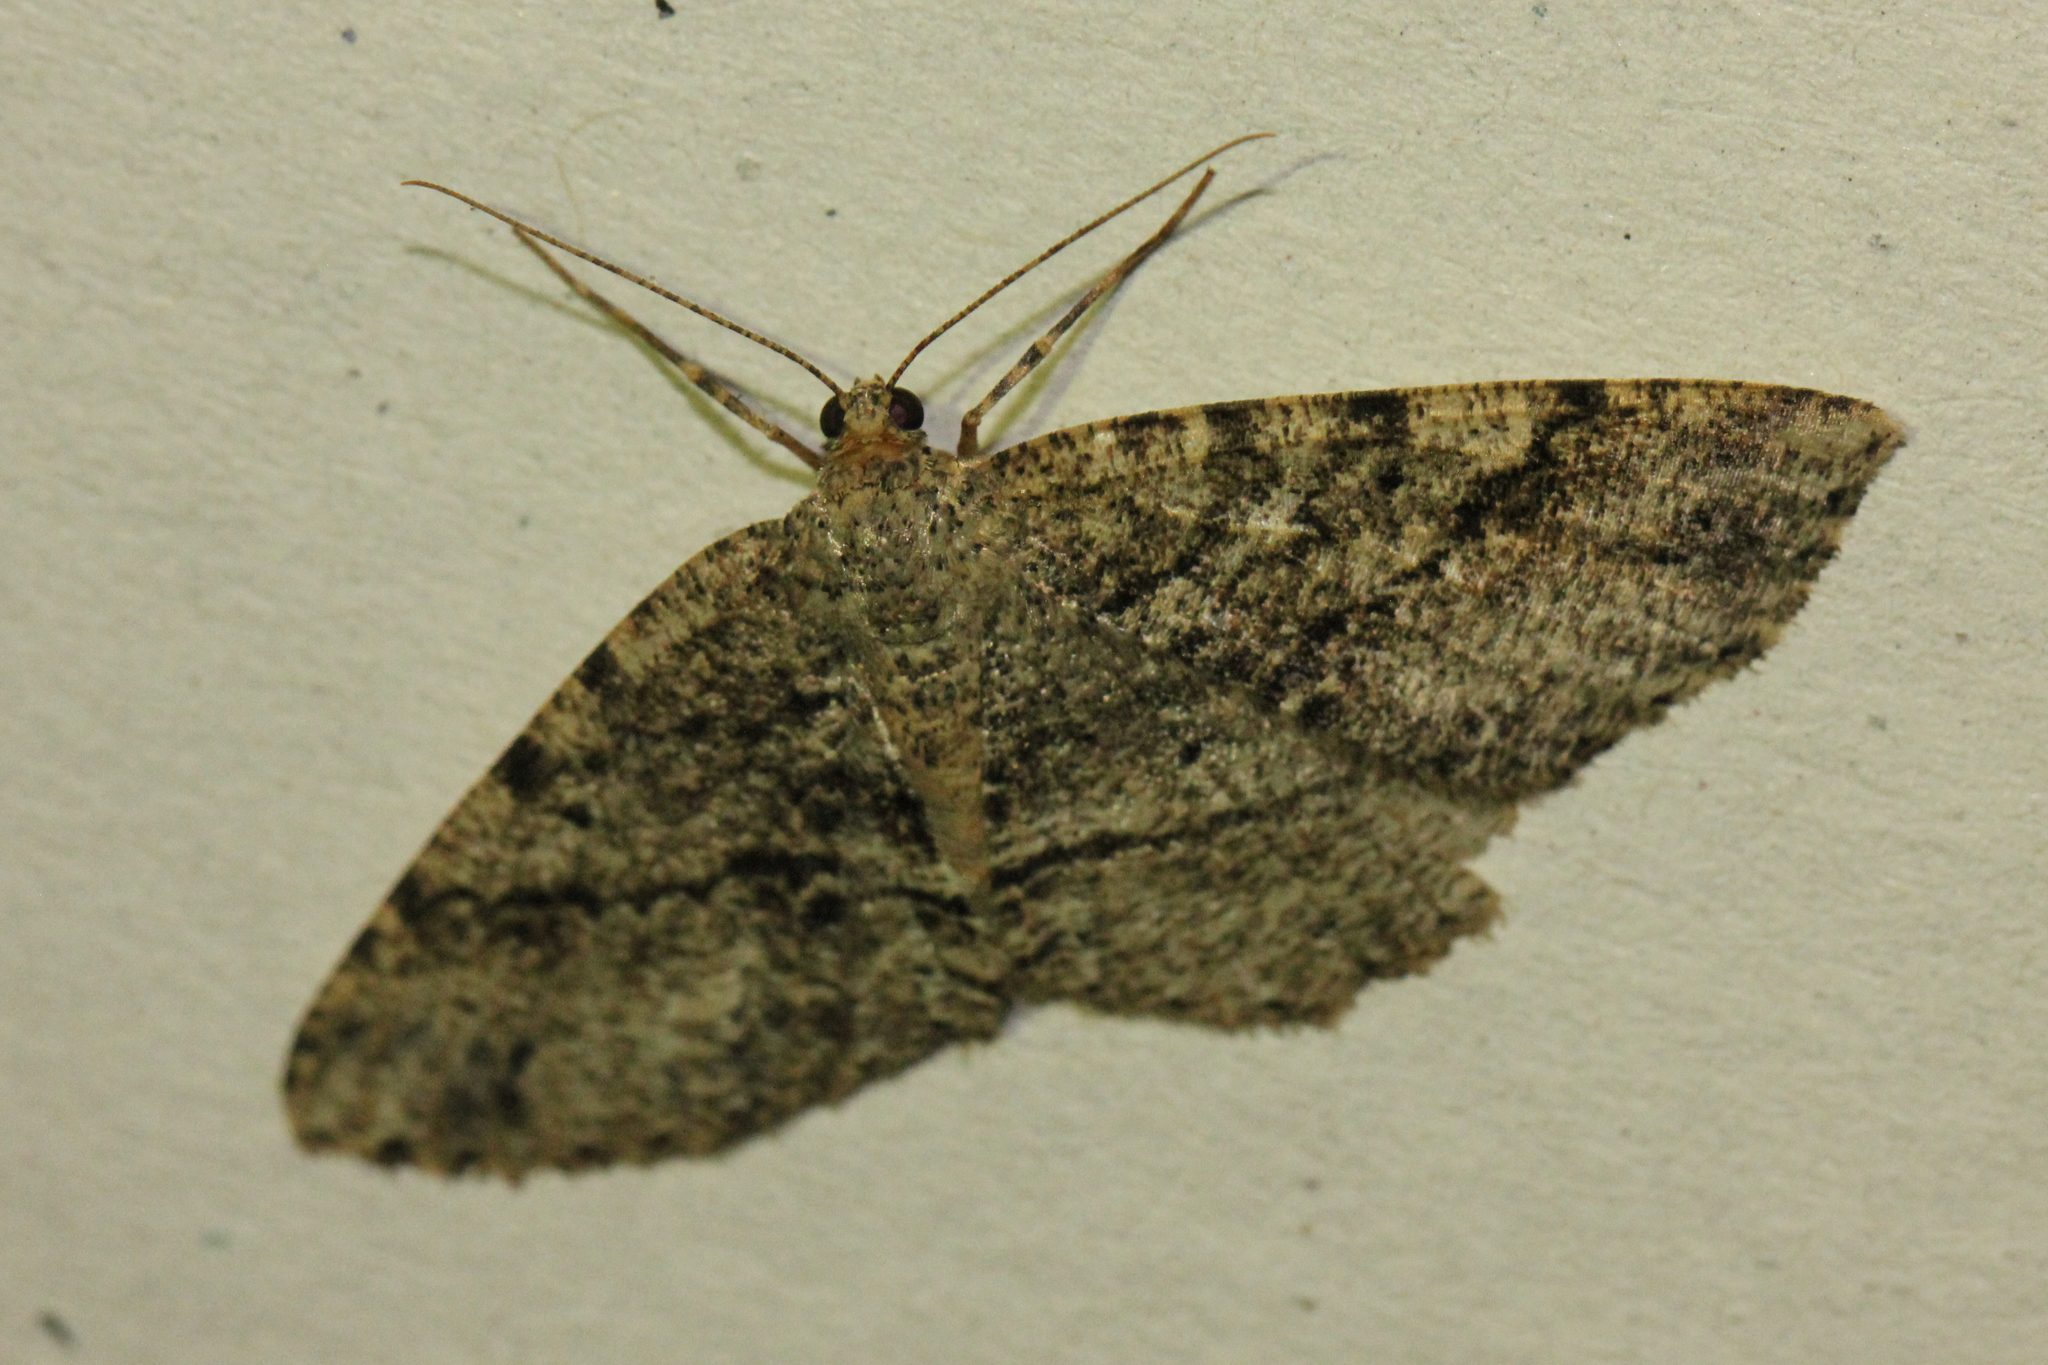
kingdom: Animalia
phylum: Arthropoda
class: Insecta
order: Lepidoptera
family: Geometridae
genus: Melanolophia
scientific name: Melanolophia canadaria
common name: Canadian melanolophia
